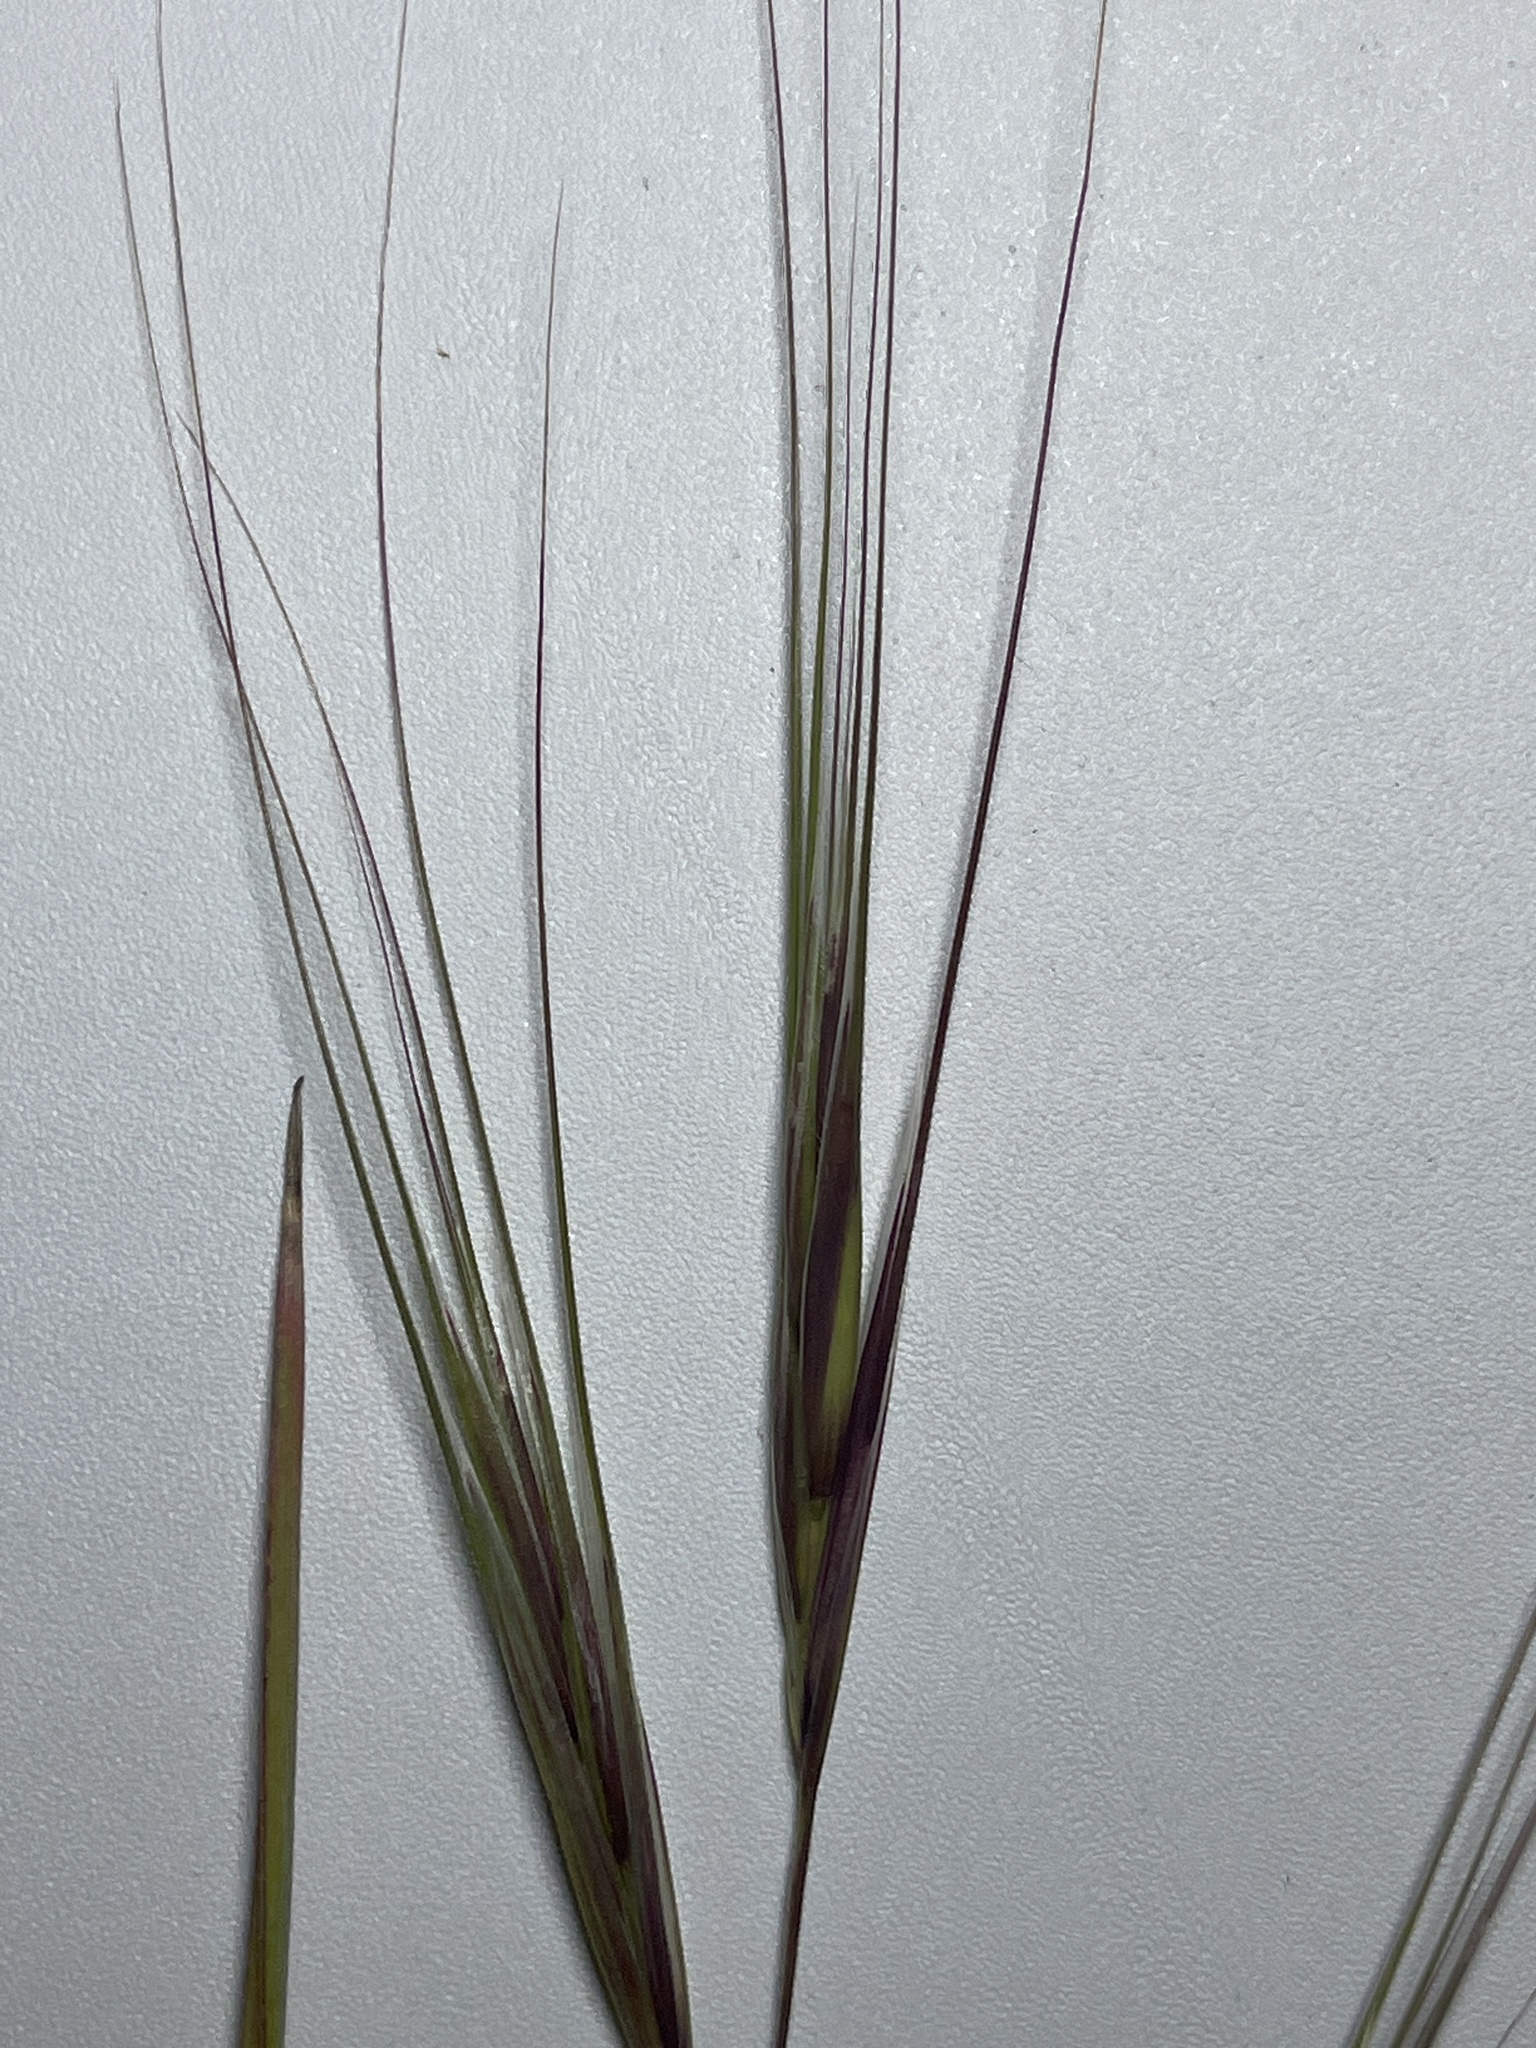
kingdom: Plantae
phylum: Tracheophyta
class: Liliopsida
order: Poales
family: Poaceae
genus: Bromus
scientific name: Bromus diandrus
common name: Ripgut brome
